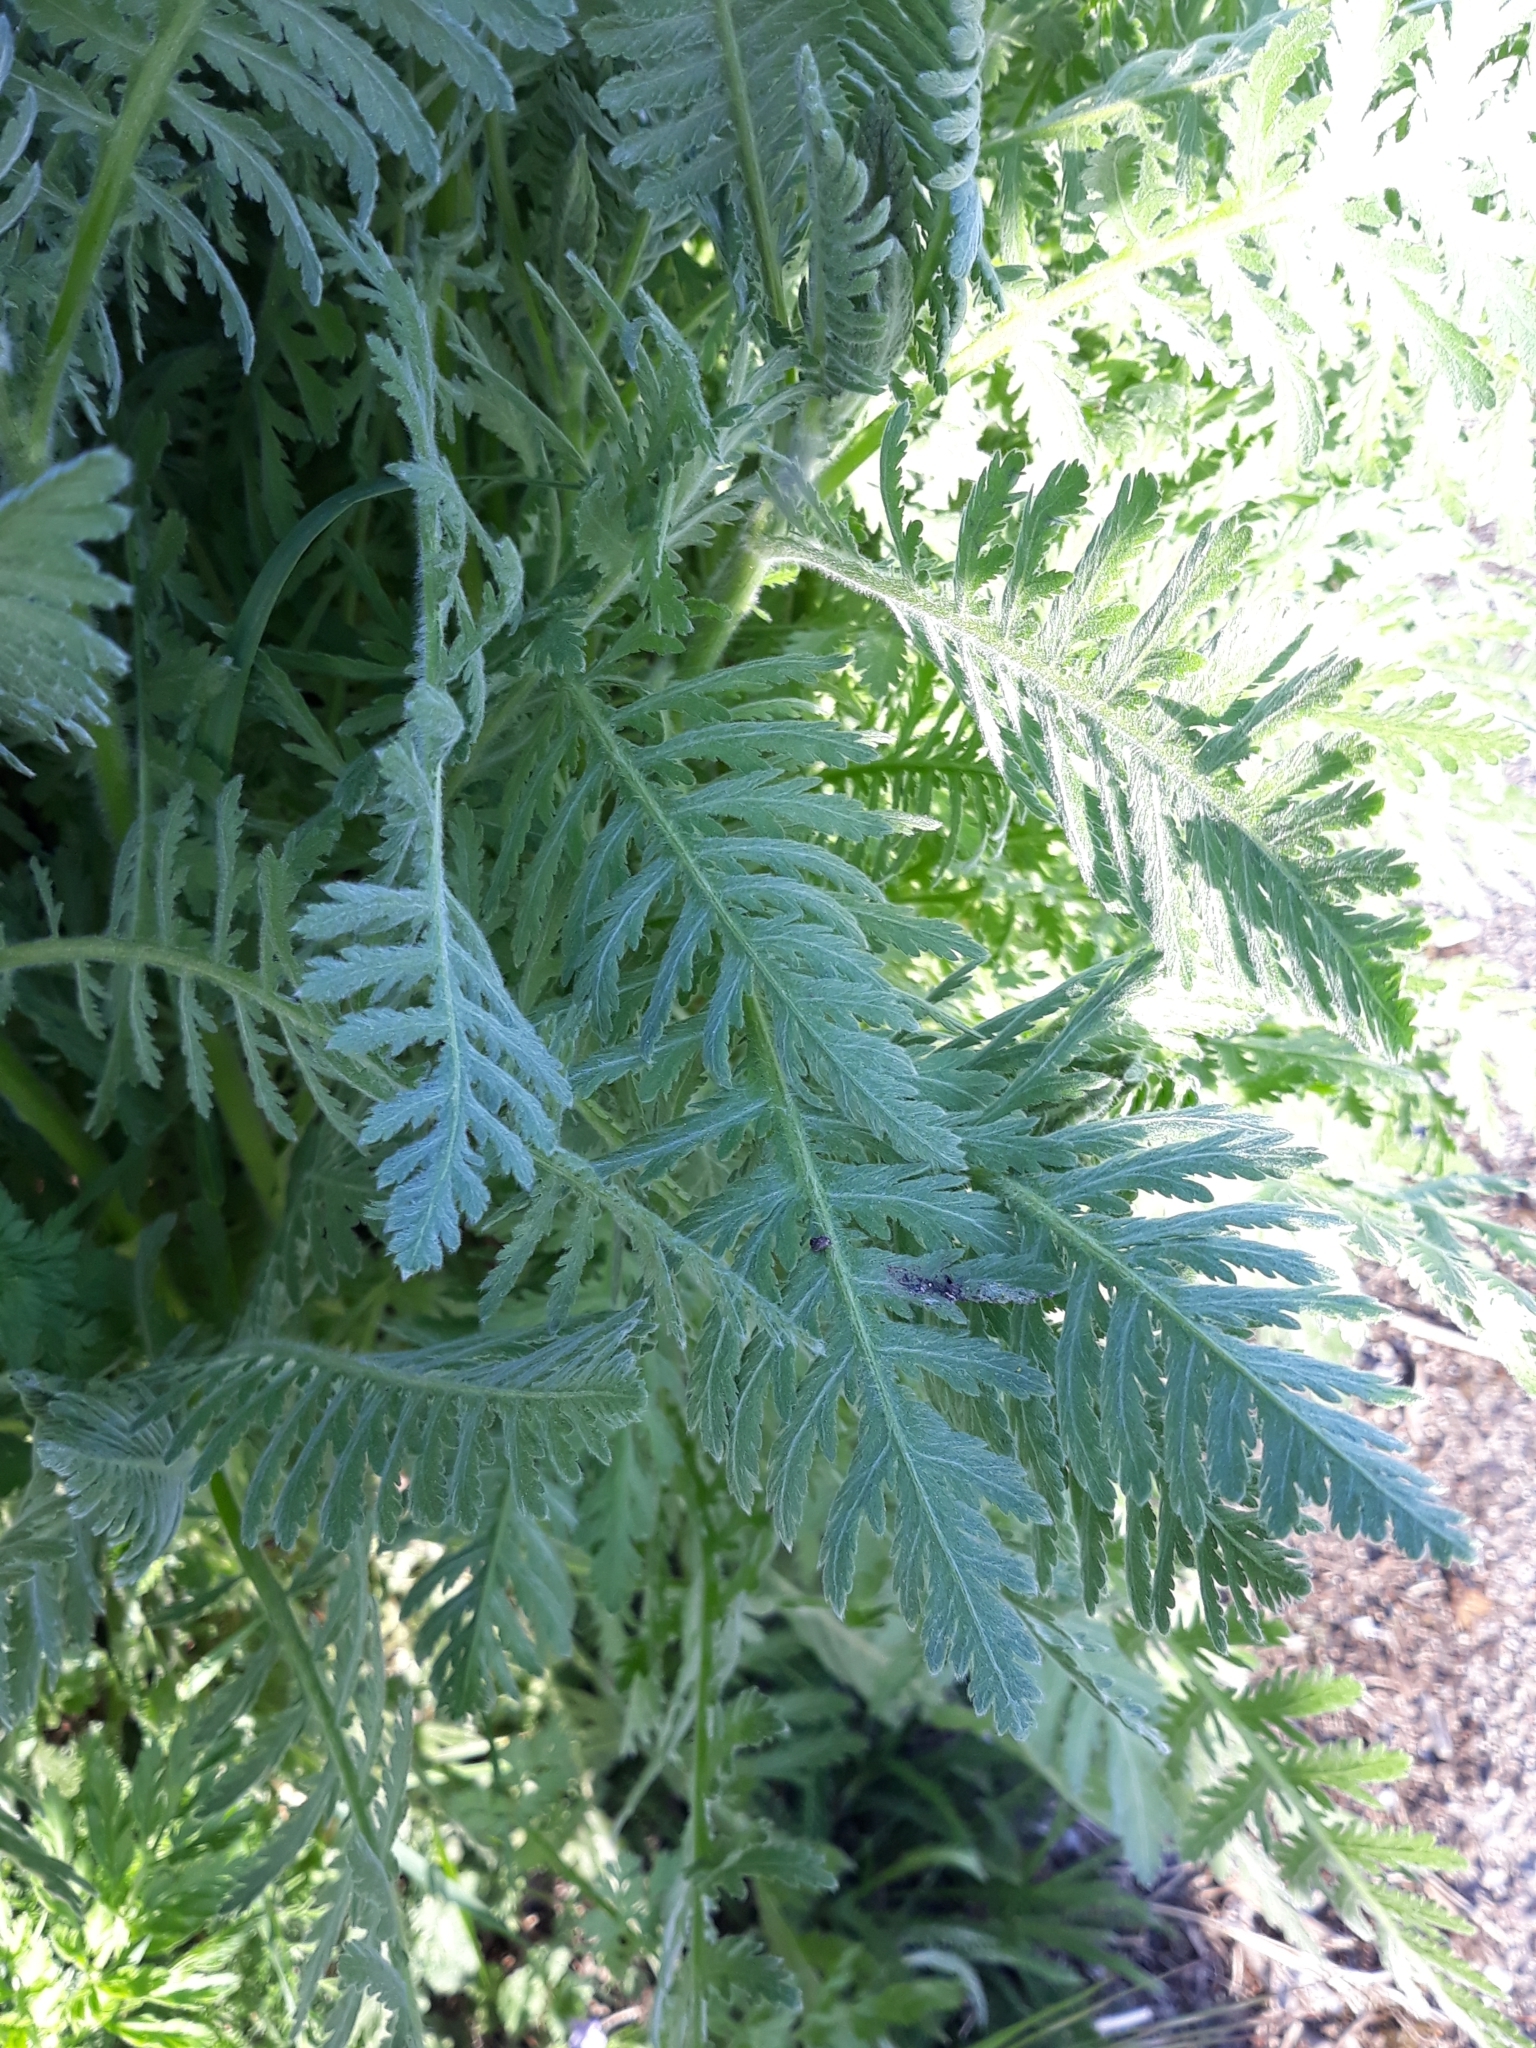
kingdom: Plantae
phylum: Tracheophyta
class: Magnoliopsida
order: Asterales
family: Asteraceae
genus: Tanacetum
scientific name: Tanacetum vulgare
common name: Common tansy
